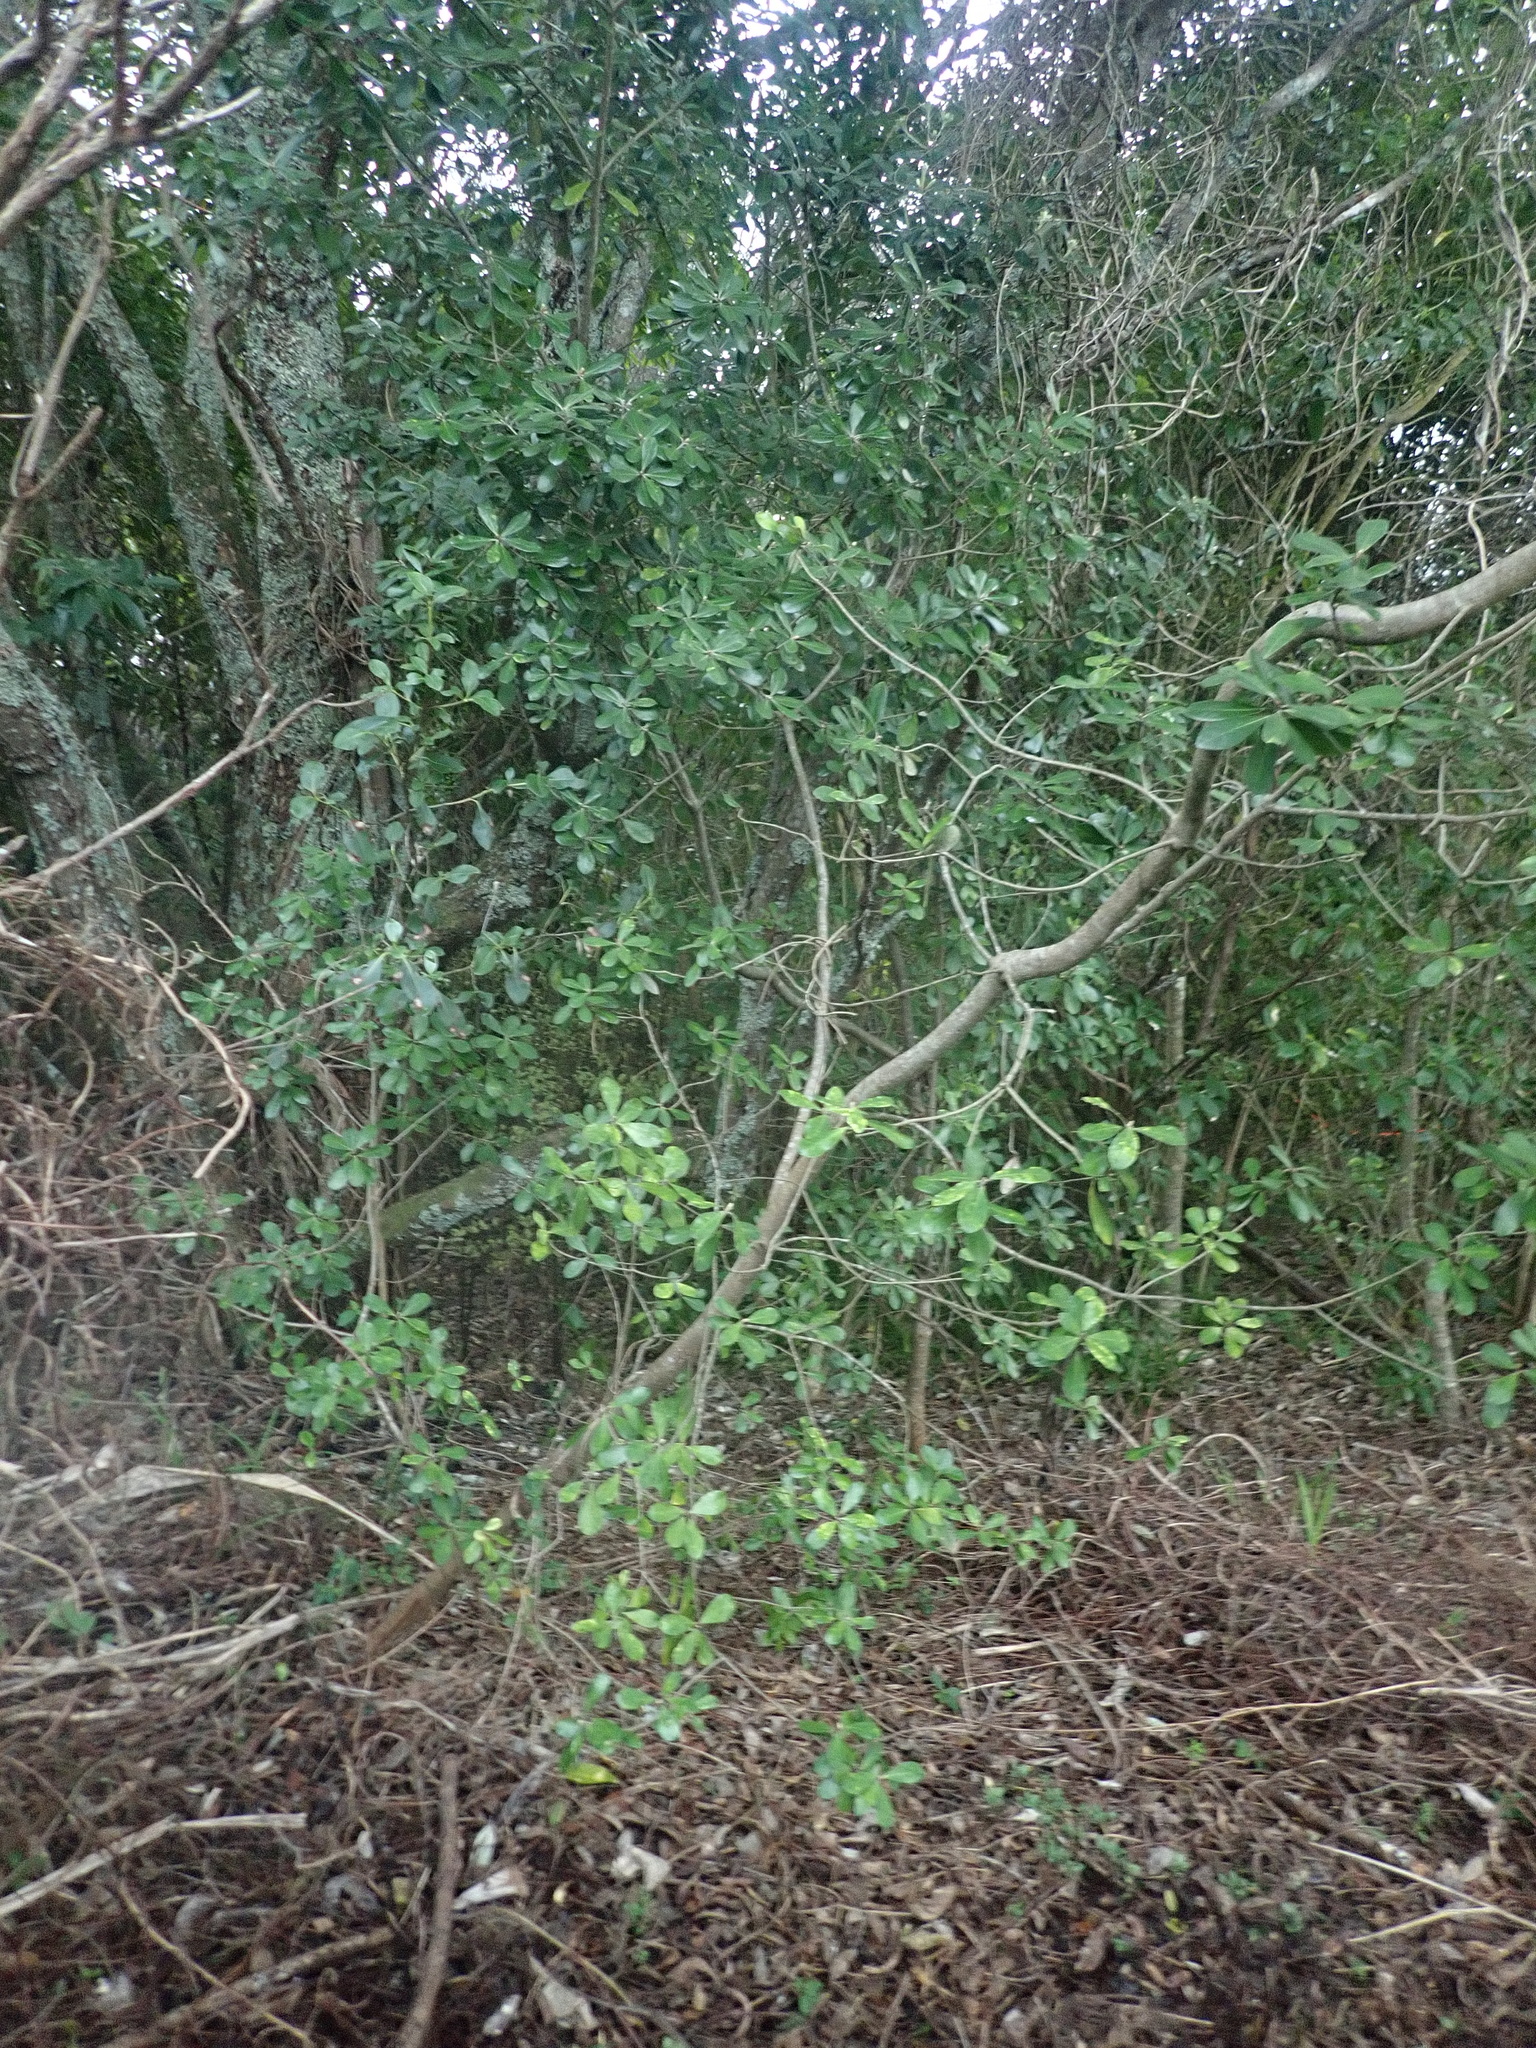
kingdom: Plantae
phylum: Tracheophyta
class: Magnoliopsida
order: Apiales
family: Pittosporaceae
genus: Pittosporum
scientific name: Pittosporum crassifolium
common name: Karo
